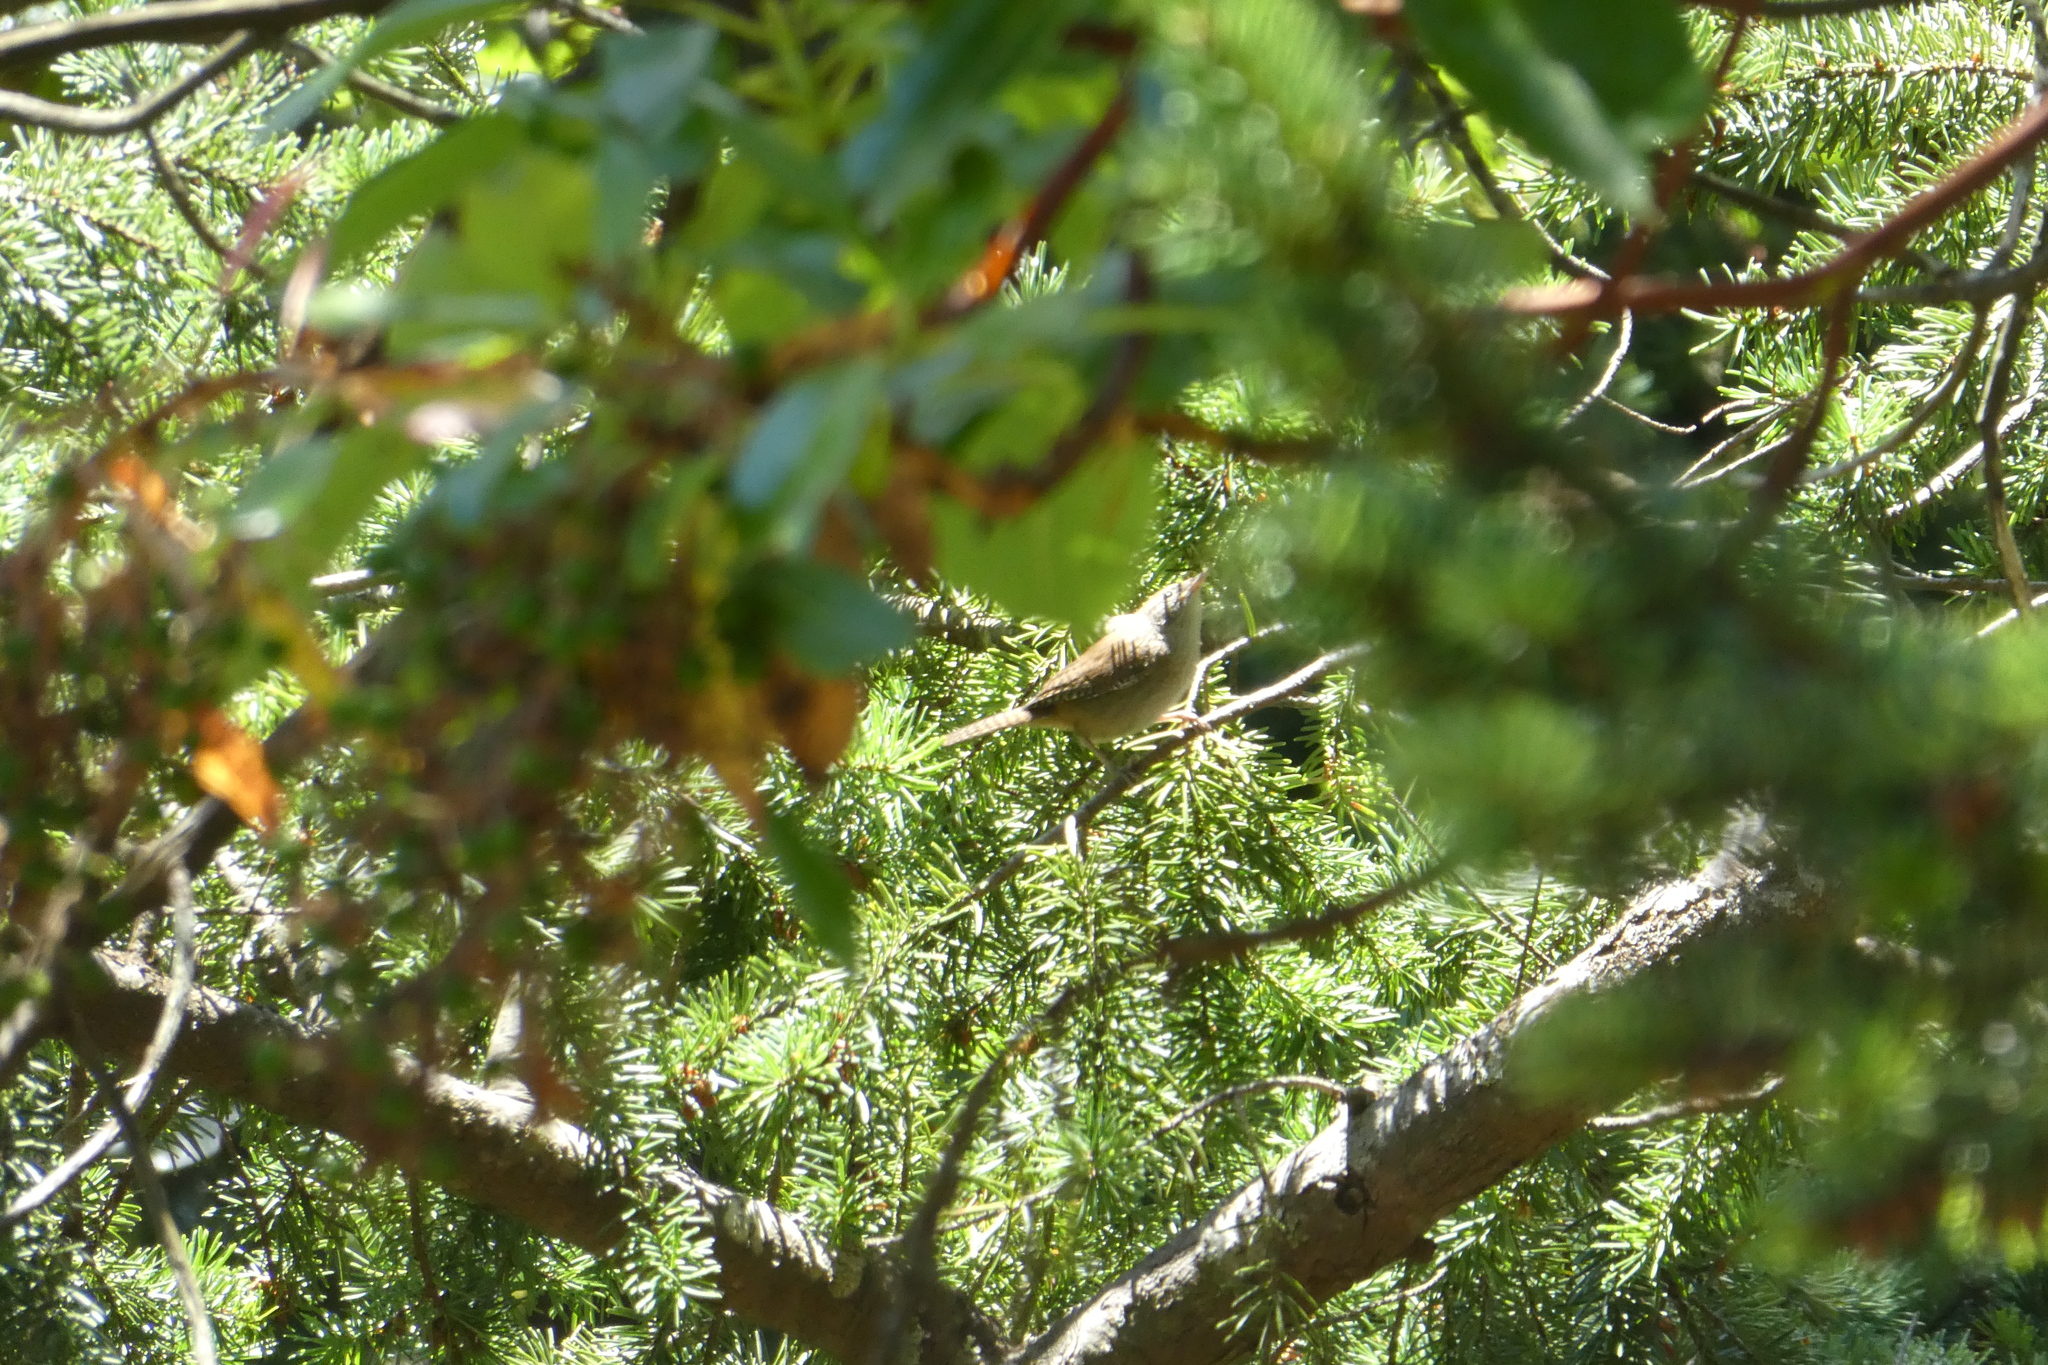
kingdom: Animalia
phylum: Chordata
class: Aves
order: Passeriformes
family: Troglodytidae
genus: Troglodytes
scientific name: Troglodytes aedon
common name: House wren
